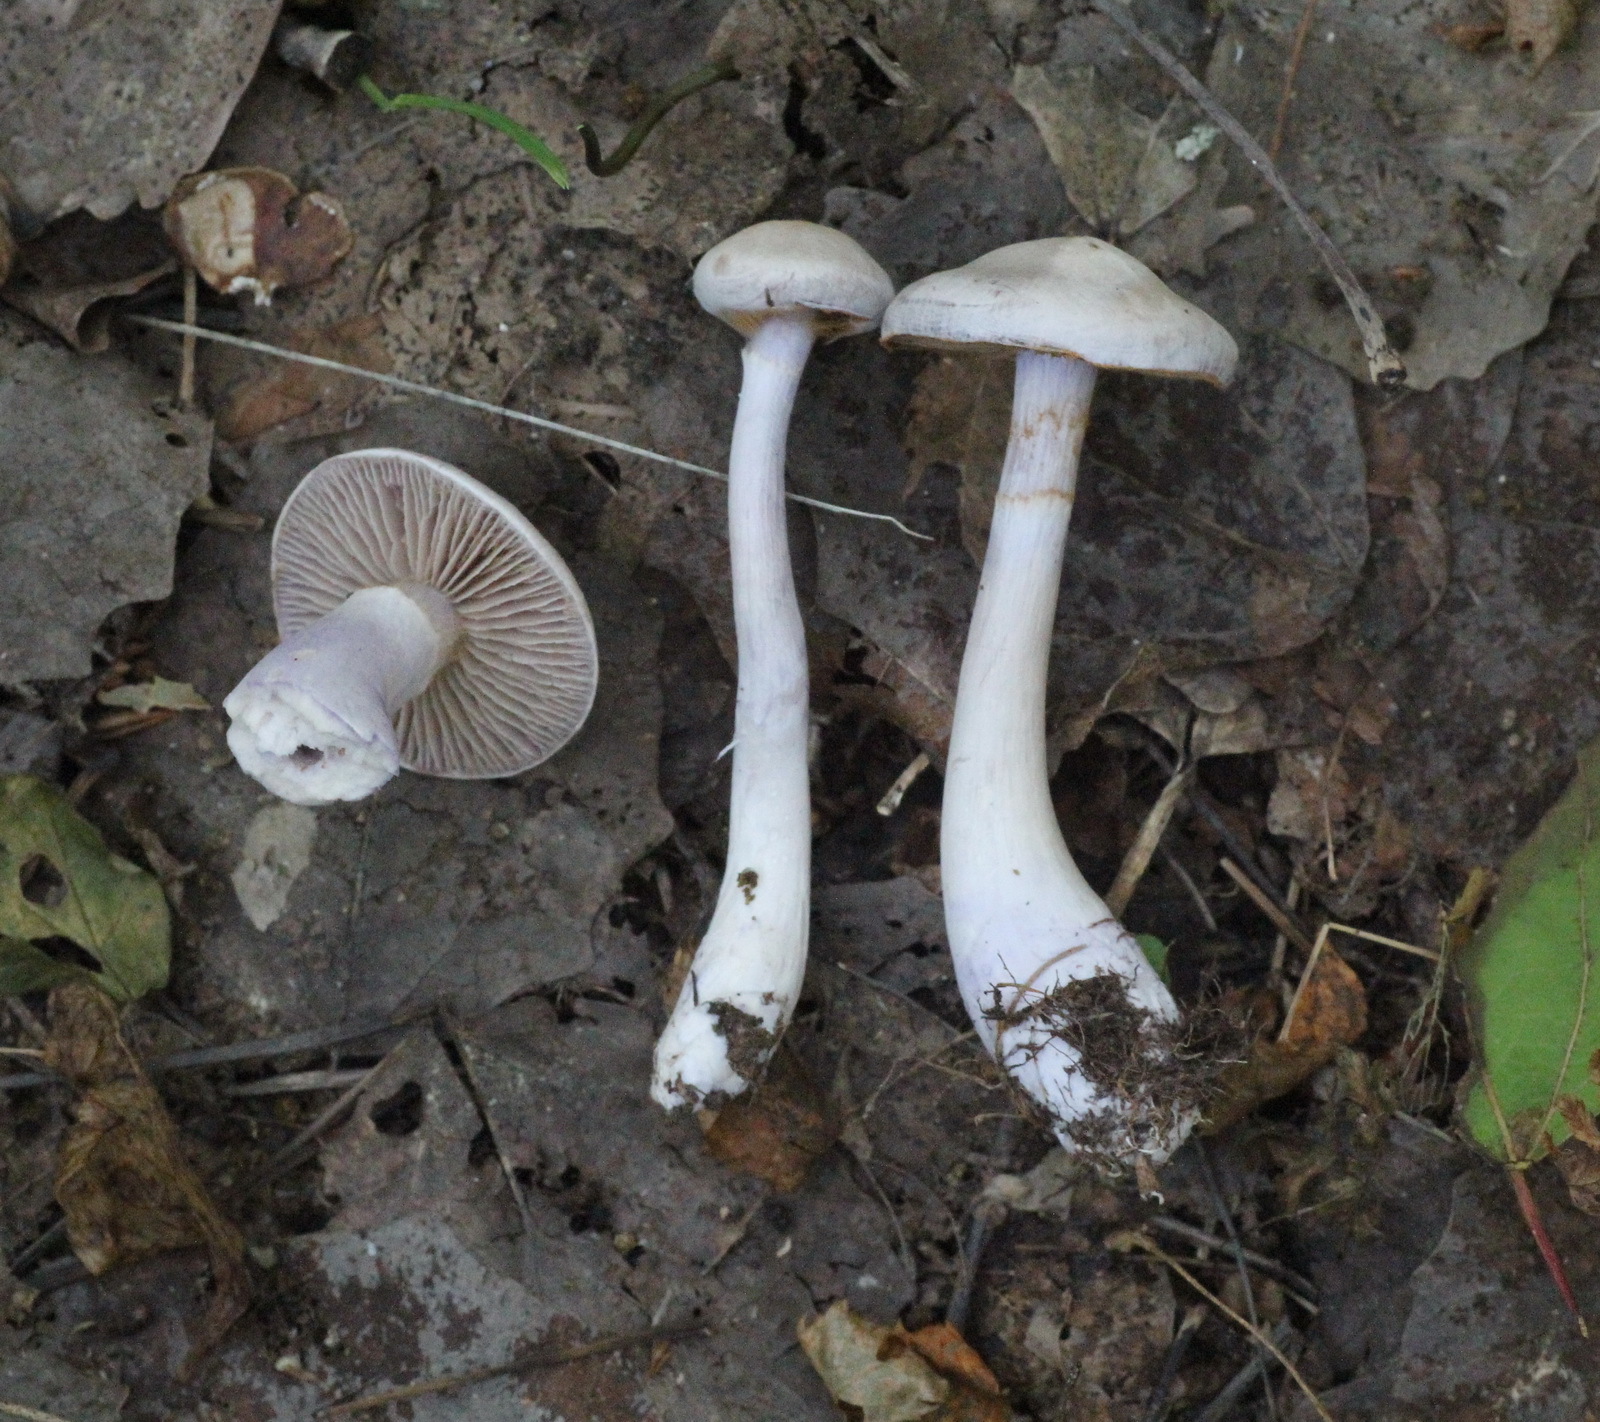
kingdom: Fungi
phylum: Basidiomycota
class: Agaricomycetes
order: Agaricales
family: Cortinariaceae
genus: Cortinarius
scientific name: Cortinarius alboviolaceus
